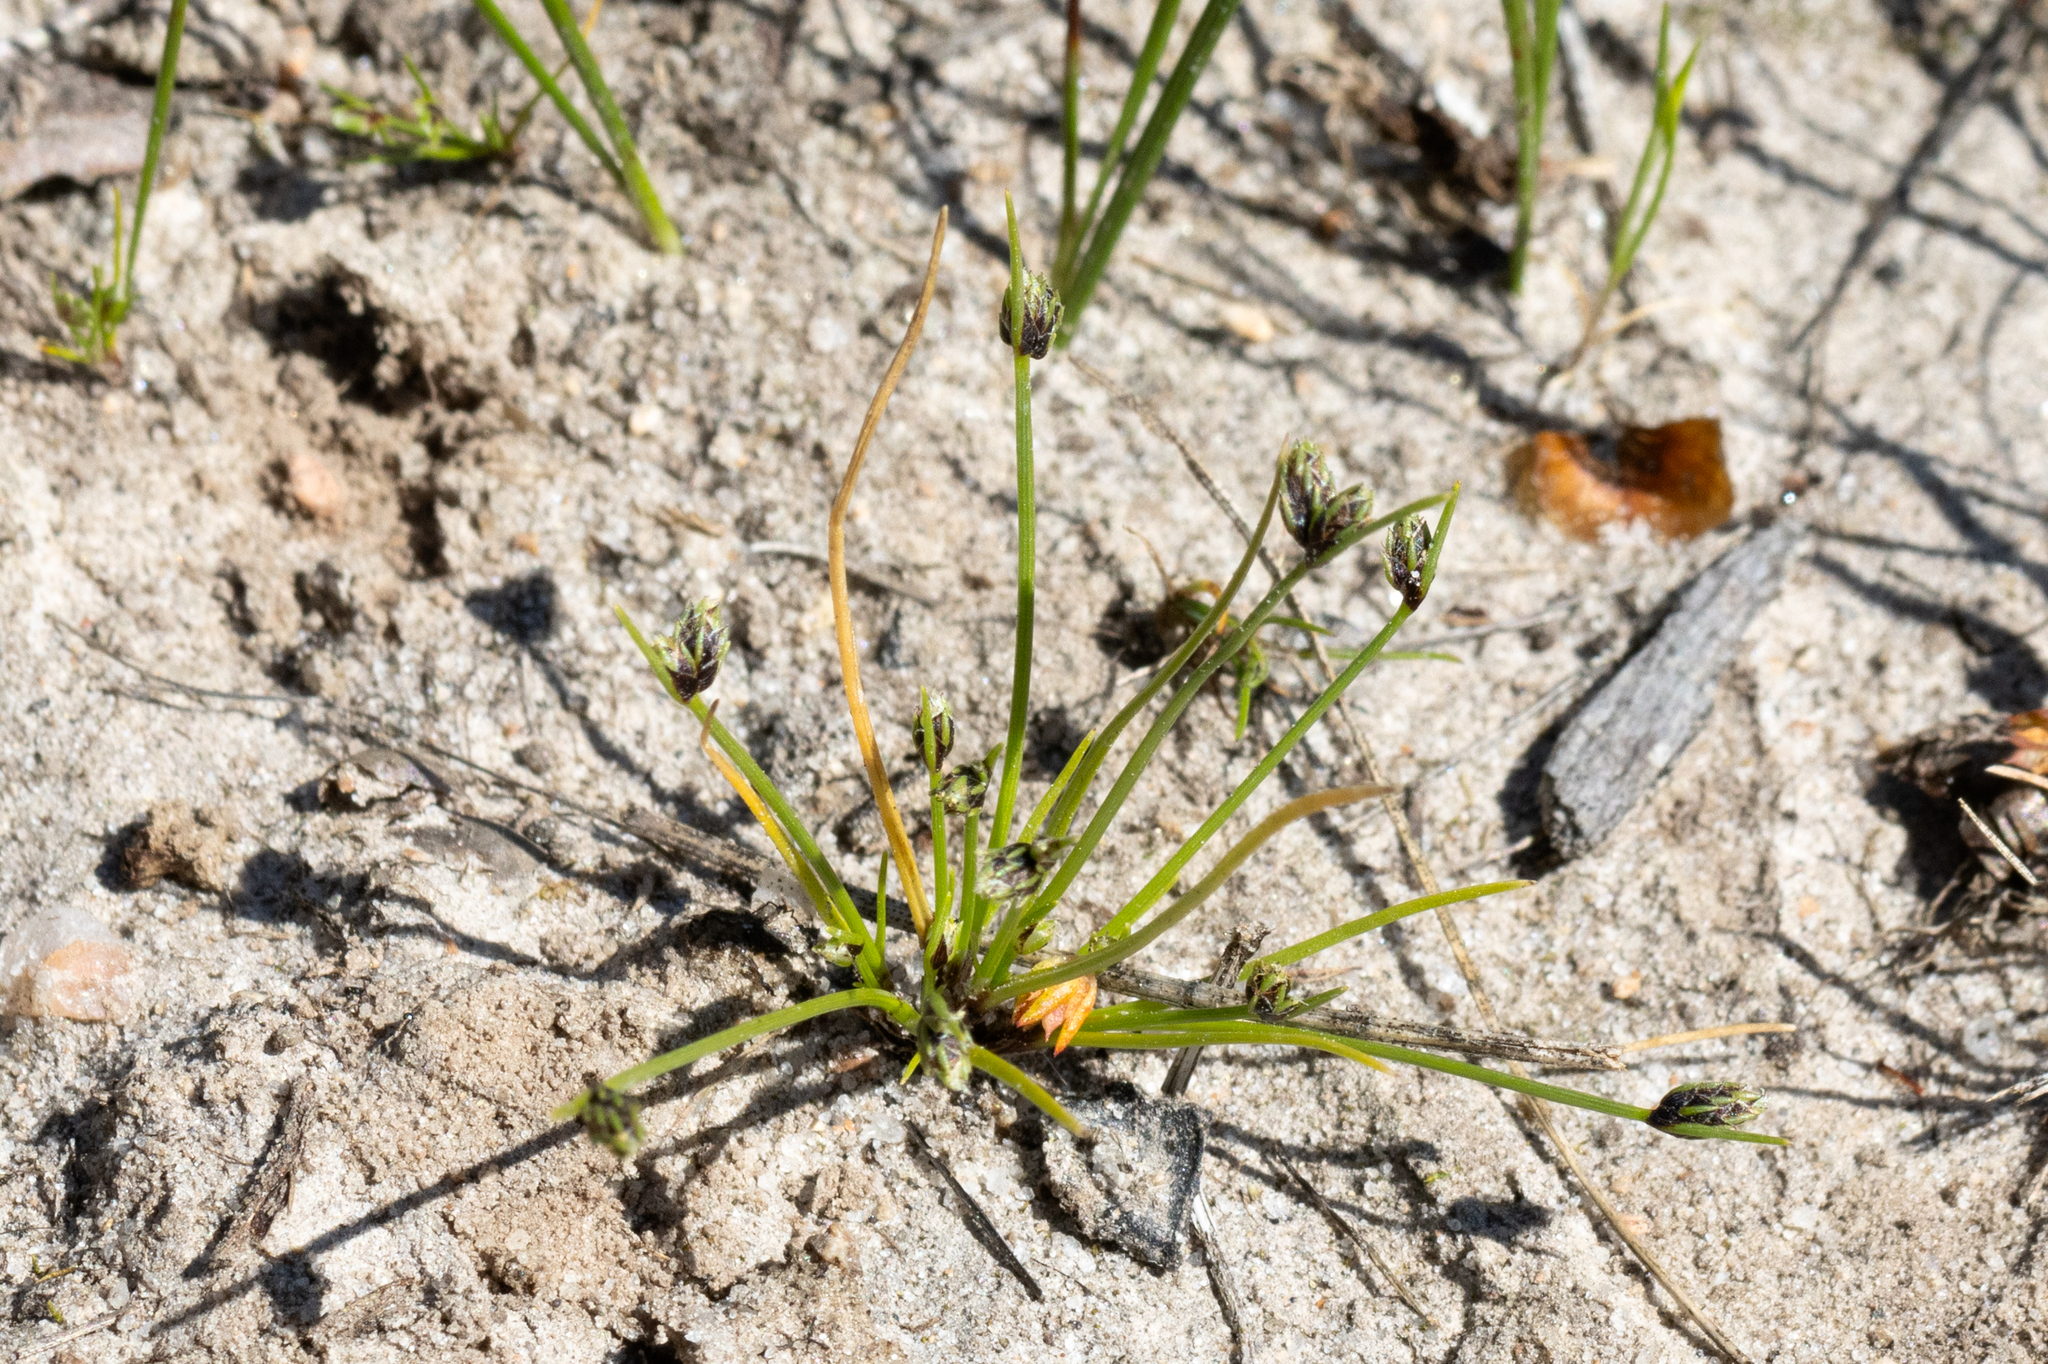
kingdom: Plantae
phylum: Tracheophyta
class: Liliopsida
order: Poales
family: Cyperaceae
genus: Isolepis
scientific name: Isolepis marginata
